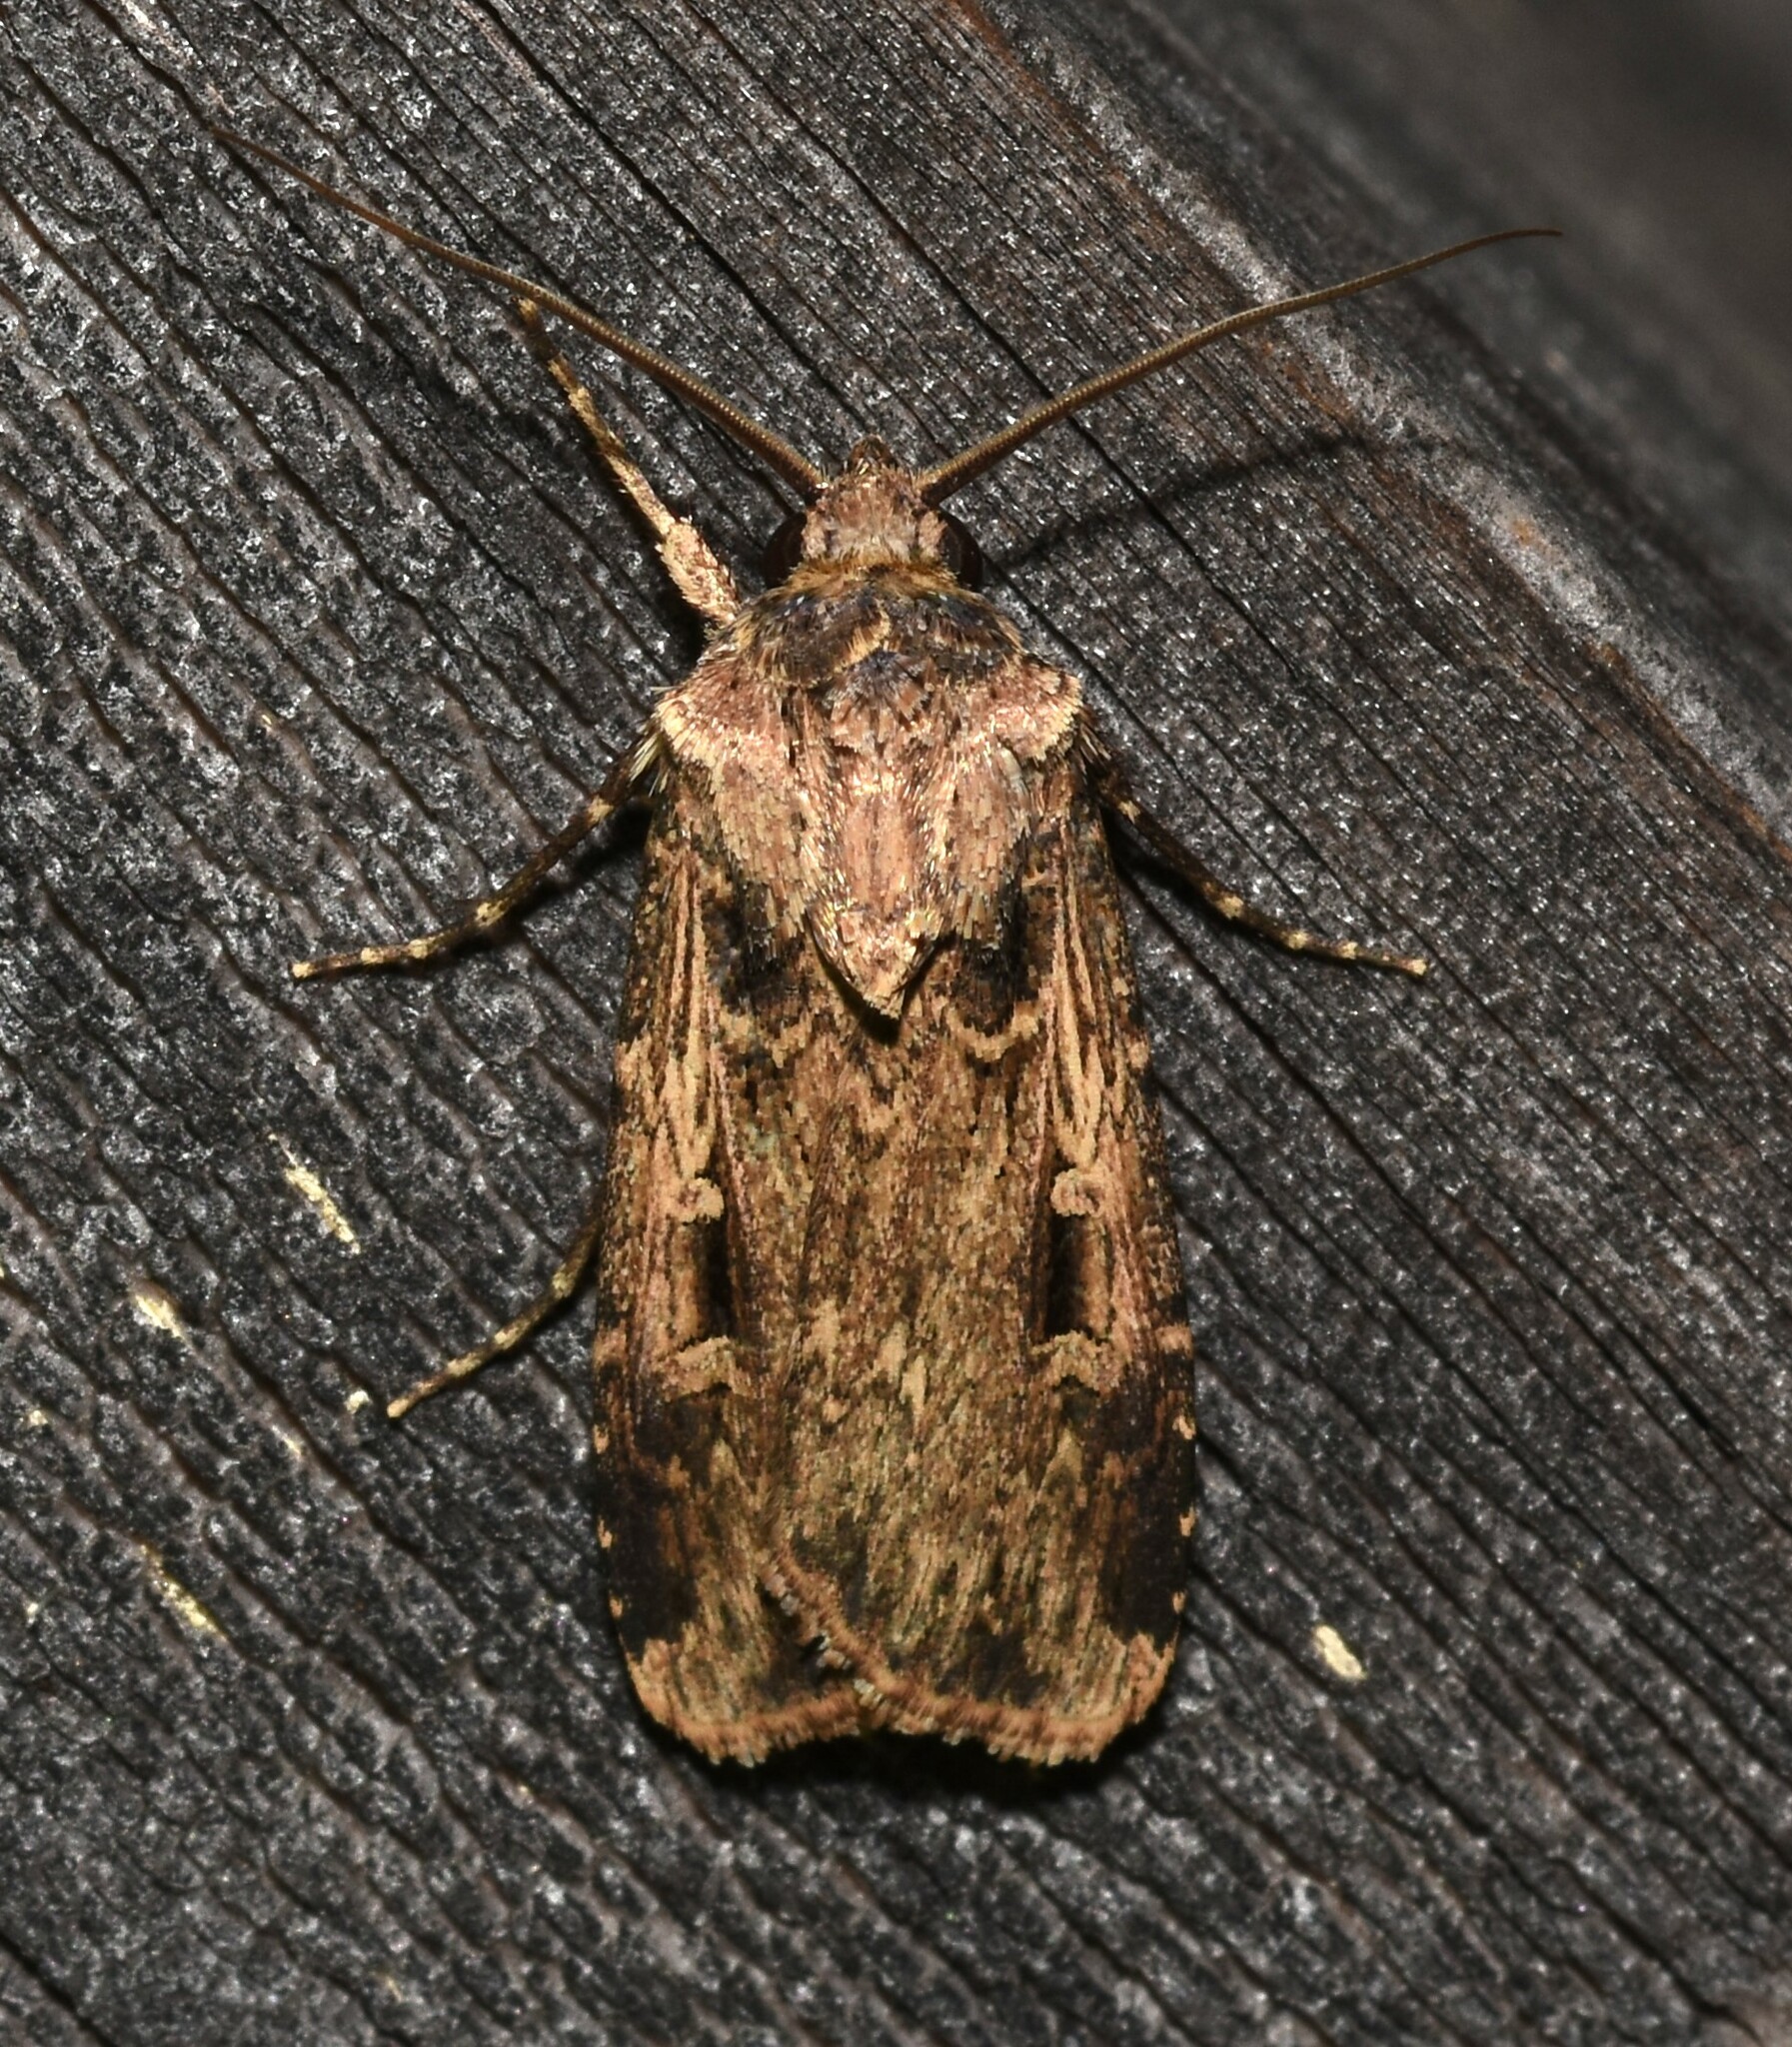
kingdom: Animalia
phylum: Arthropoda
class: Insecta
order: Lepidoptera
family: Noctuidae
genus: Feltia
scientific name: Feltia subterranea
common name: Granulate cutworm
